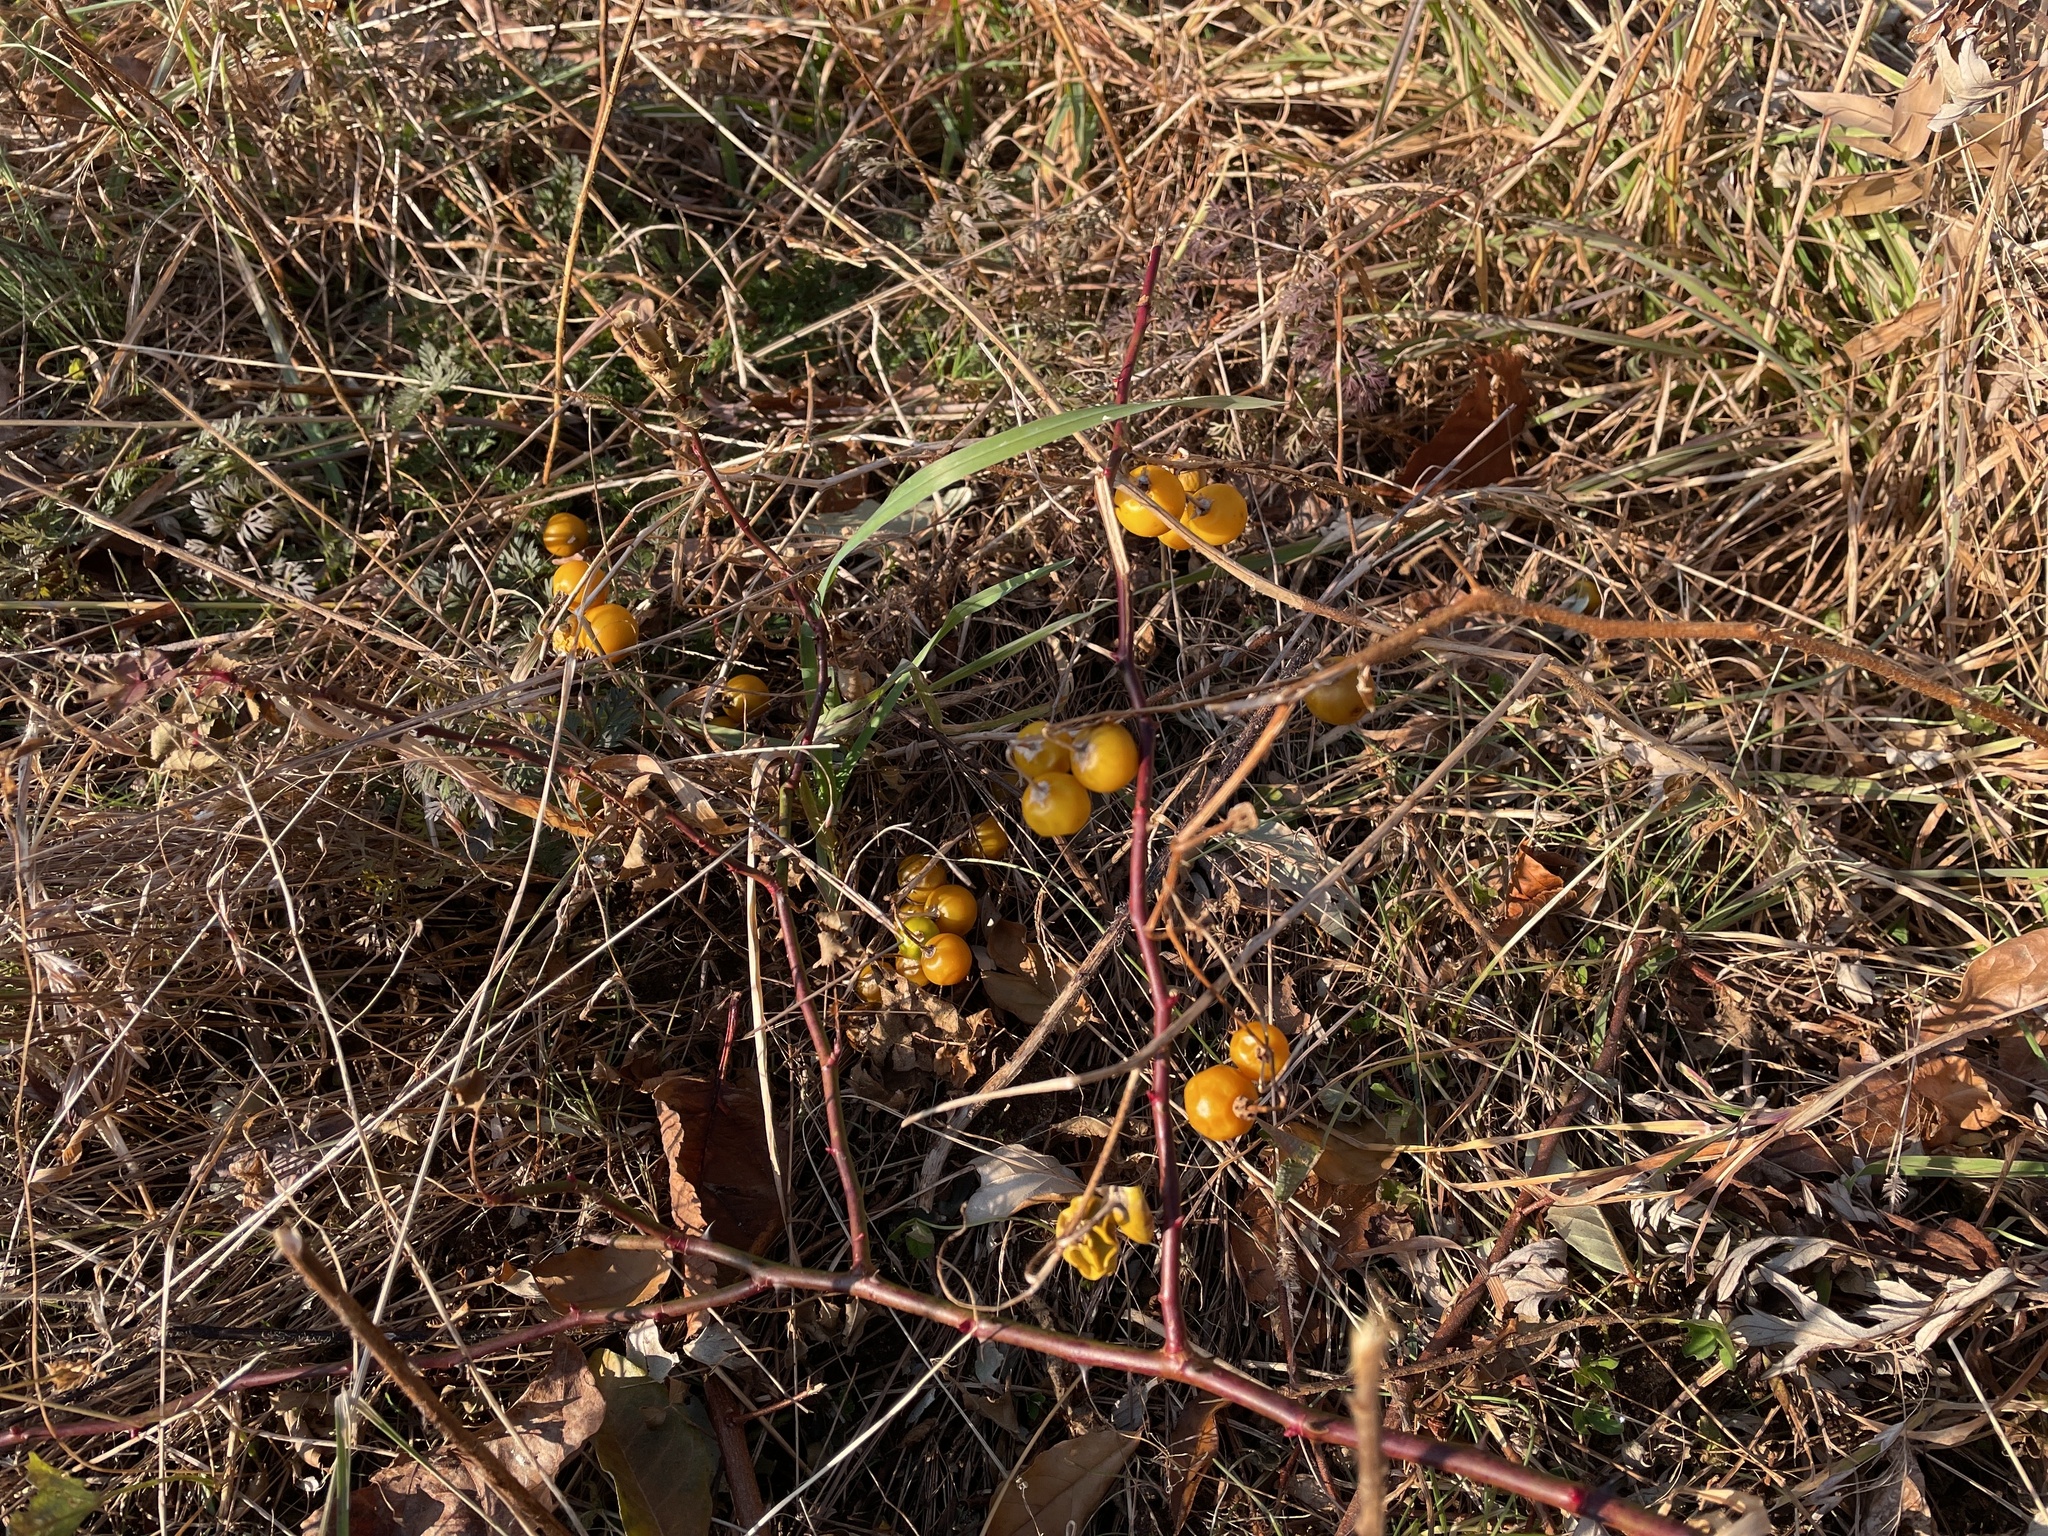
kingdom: Plantae
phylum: Tracheophyta
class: Magnoliopsida
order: Solanales
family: Solanaceae
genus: Solanum
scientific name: Solanum carolinense
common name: Horse-nettle
